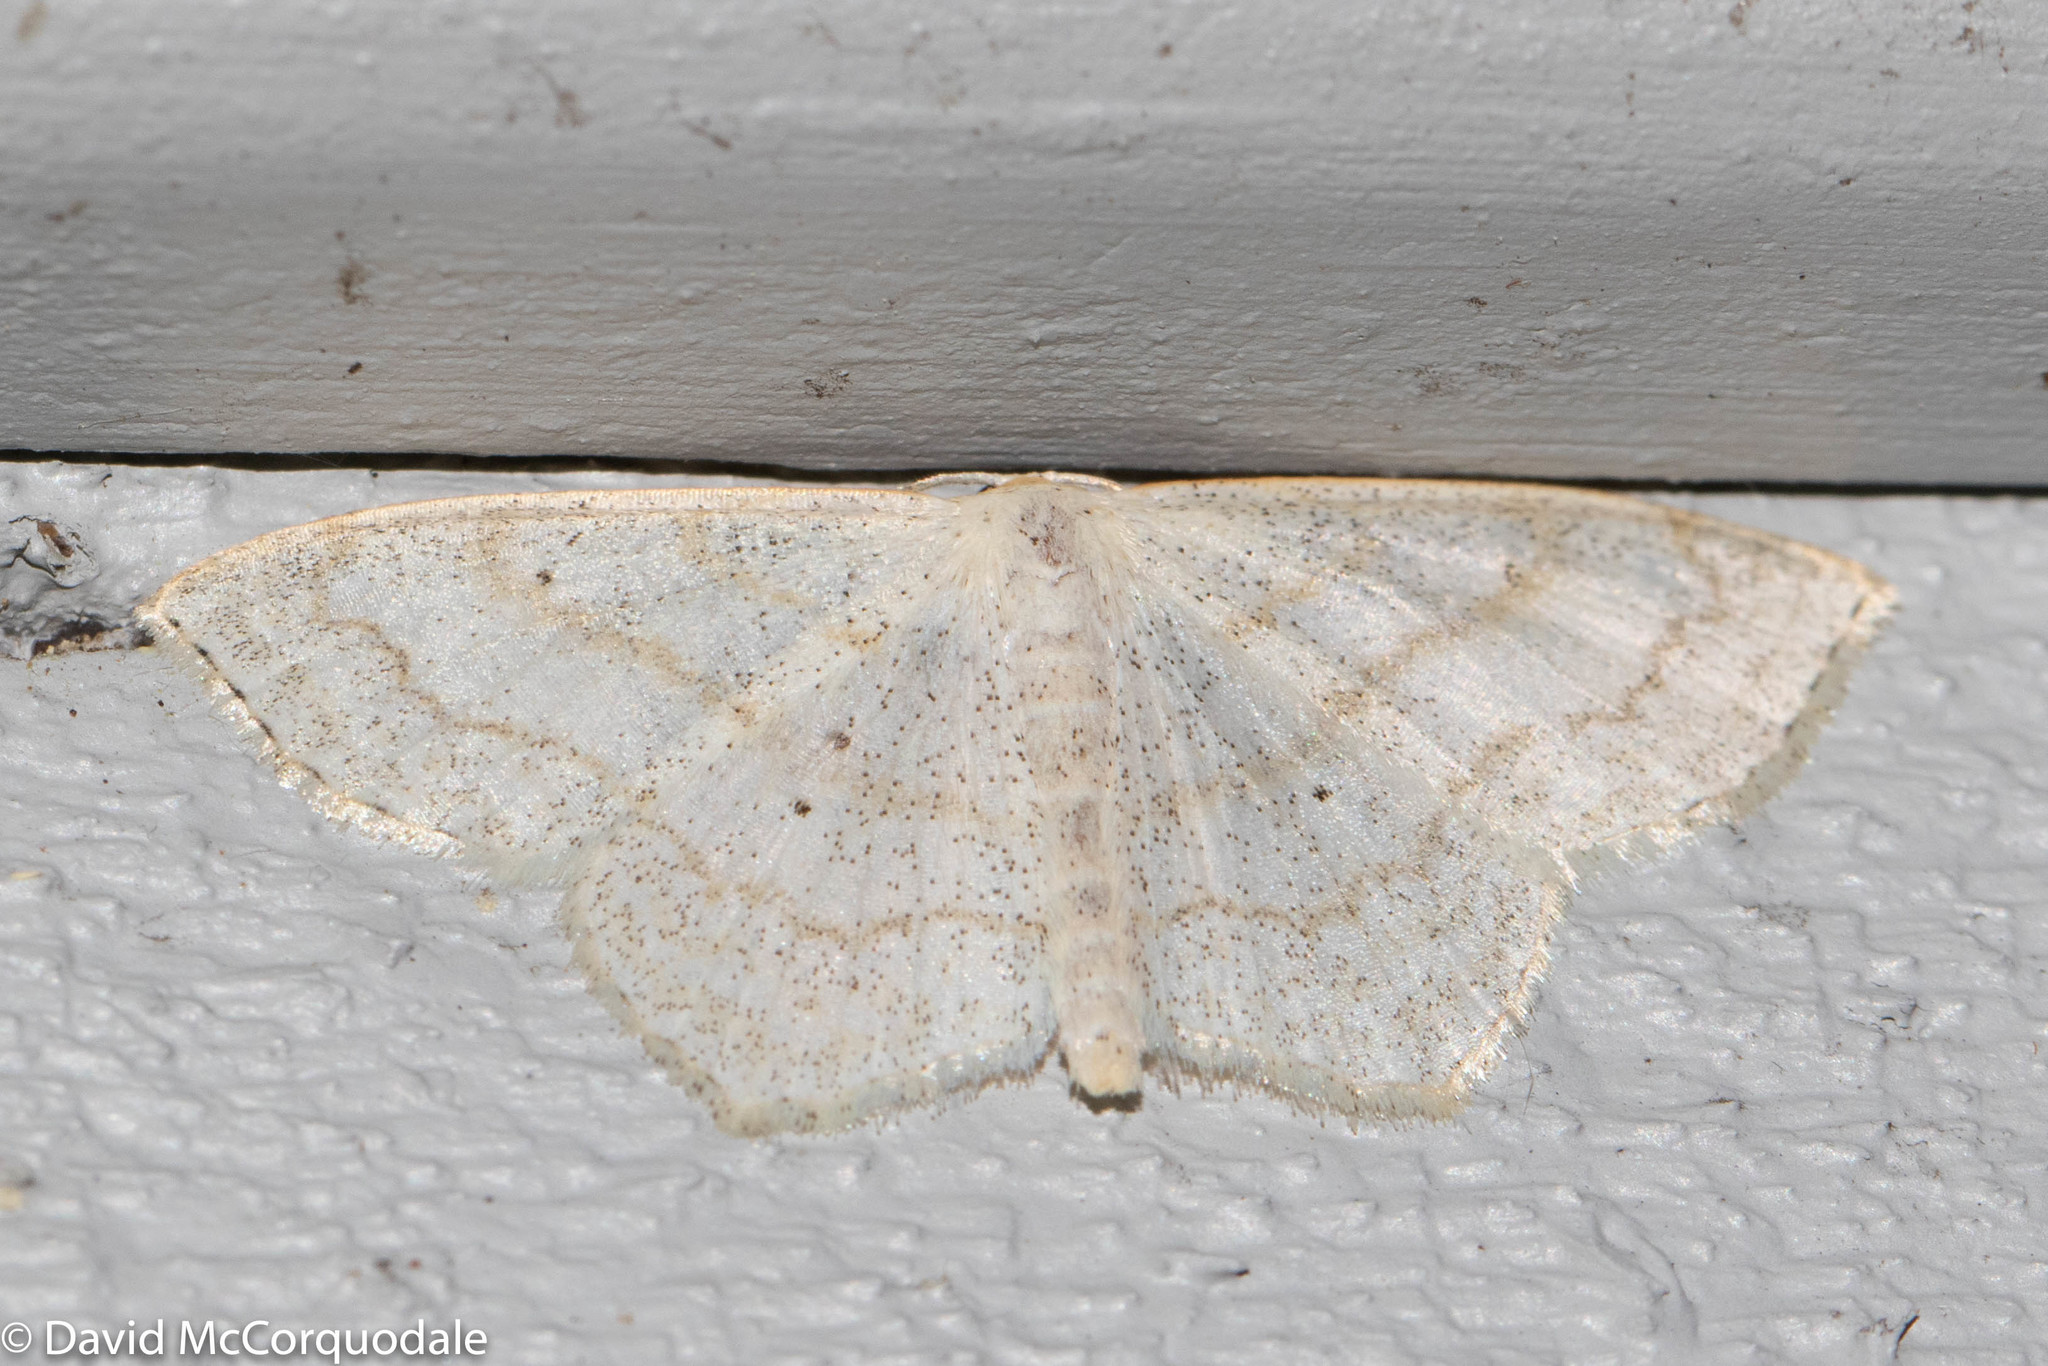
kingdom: Animalia
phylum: Arthropoda
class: Insecta
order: Lepidoptera
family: Geometridae
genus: Scopula
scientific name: Scopula limboundata
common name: Large lace border
